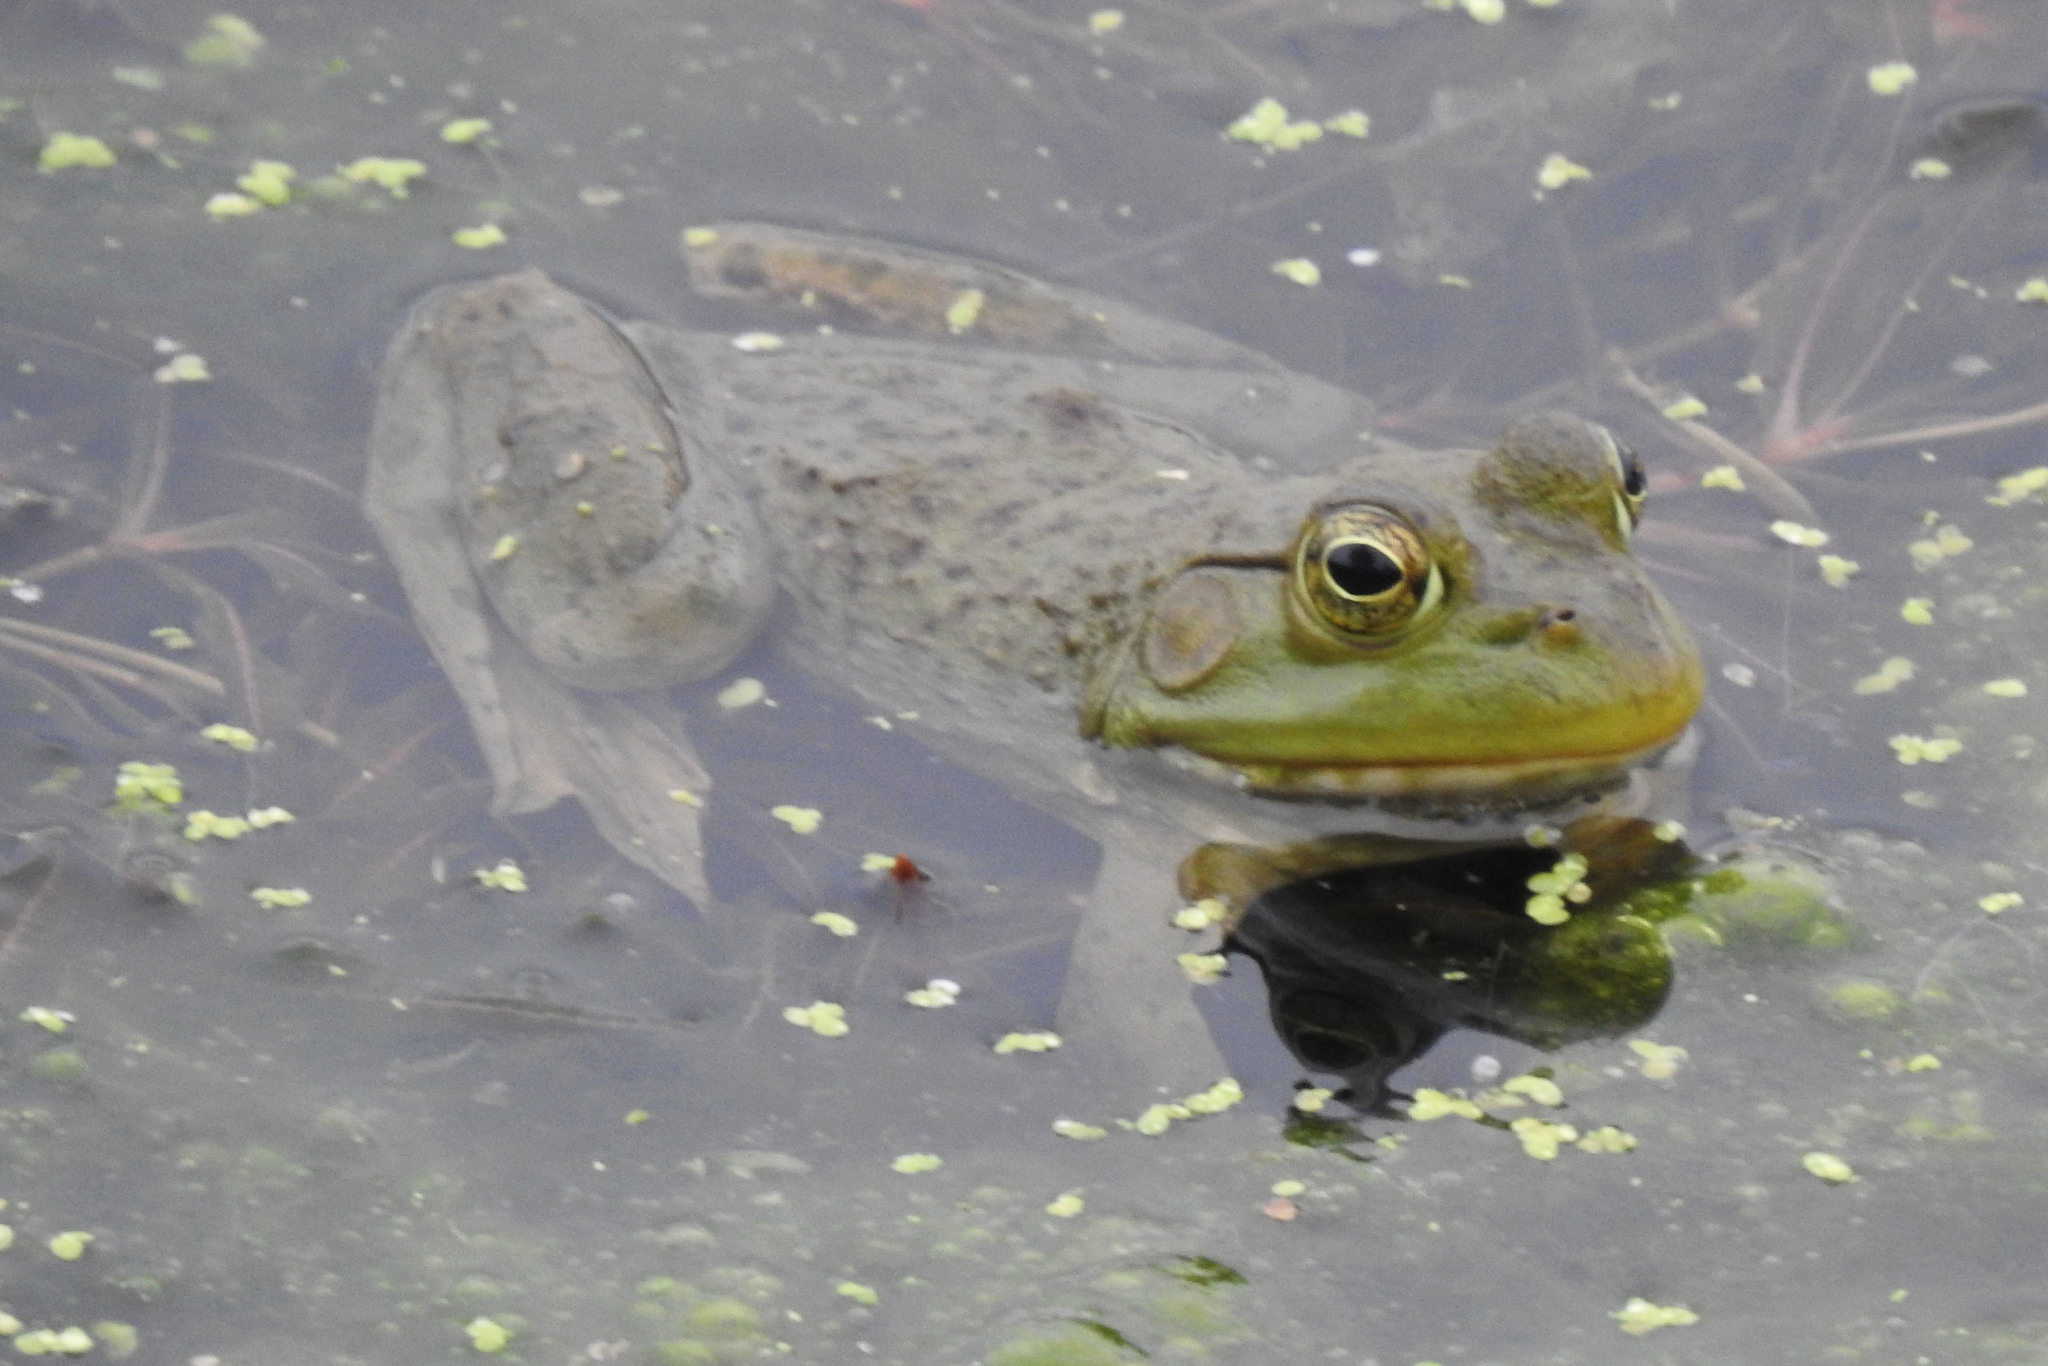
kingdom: Animalia
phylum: Chordata
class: Amphibia
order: Anura
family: Ranidae
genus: Lithobates
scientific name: Lithobates catesbeianus
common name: American bullfrog
